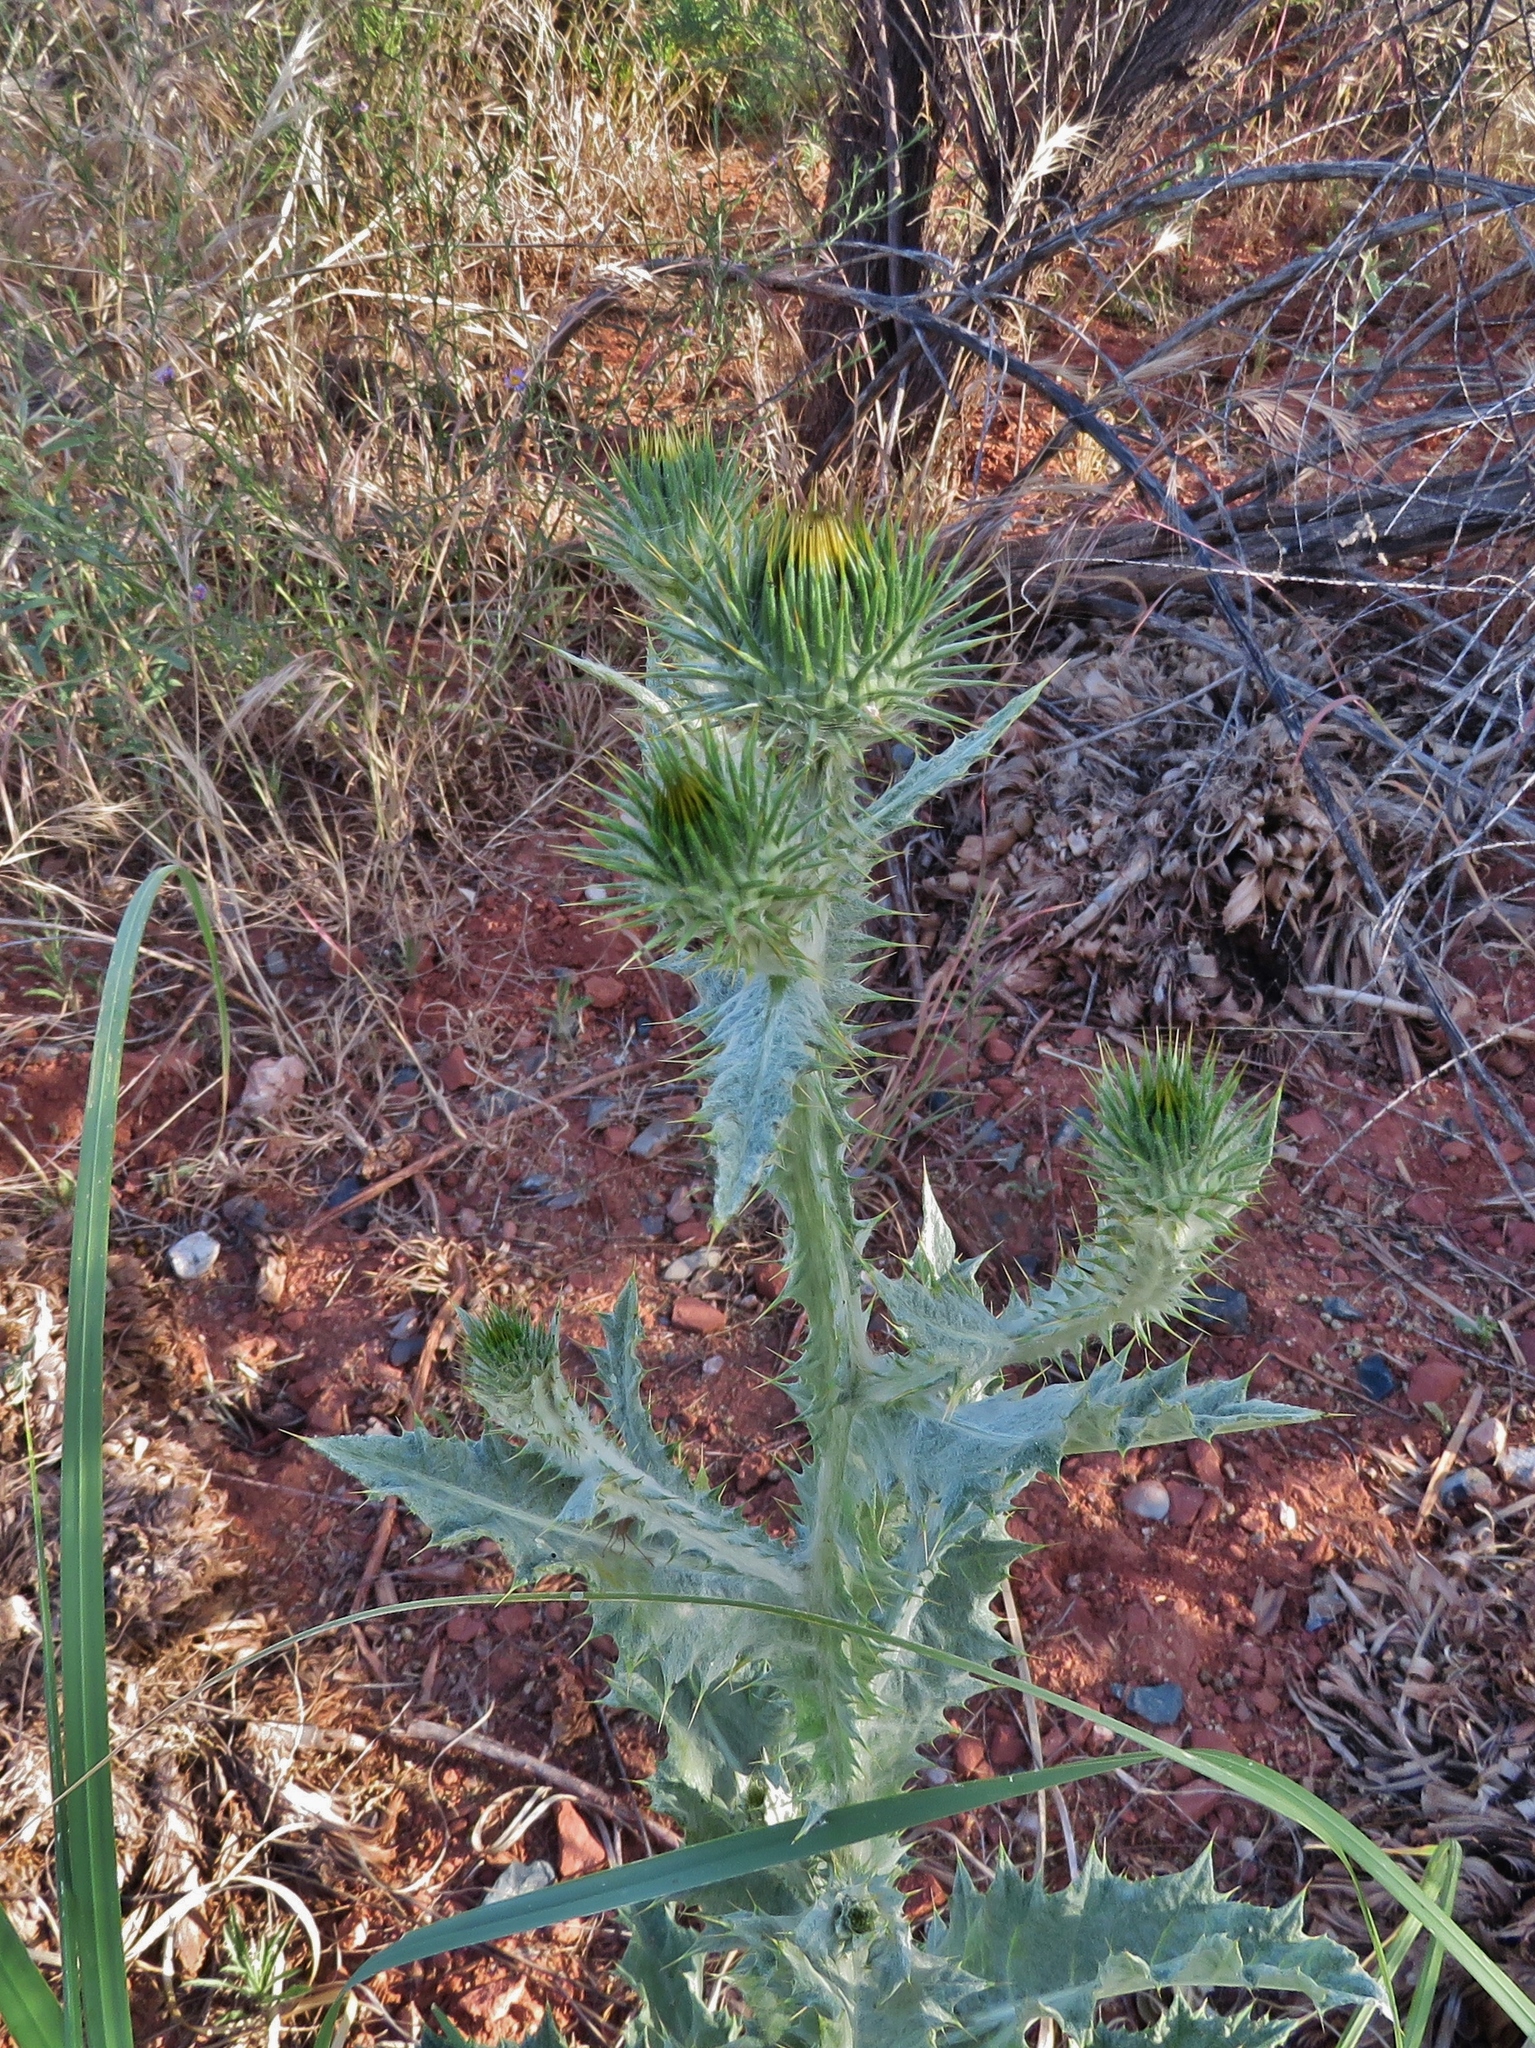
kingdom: Plantae
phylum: Tracheophyta
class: Magnoliopsida
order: Asterales
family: Asteraceae
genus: Onopordum
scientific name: Onopordum acanthium
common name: Scotch thistle
